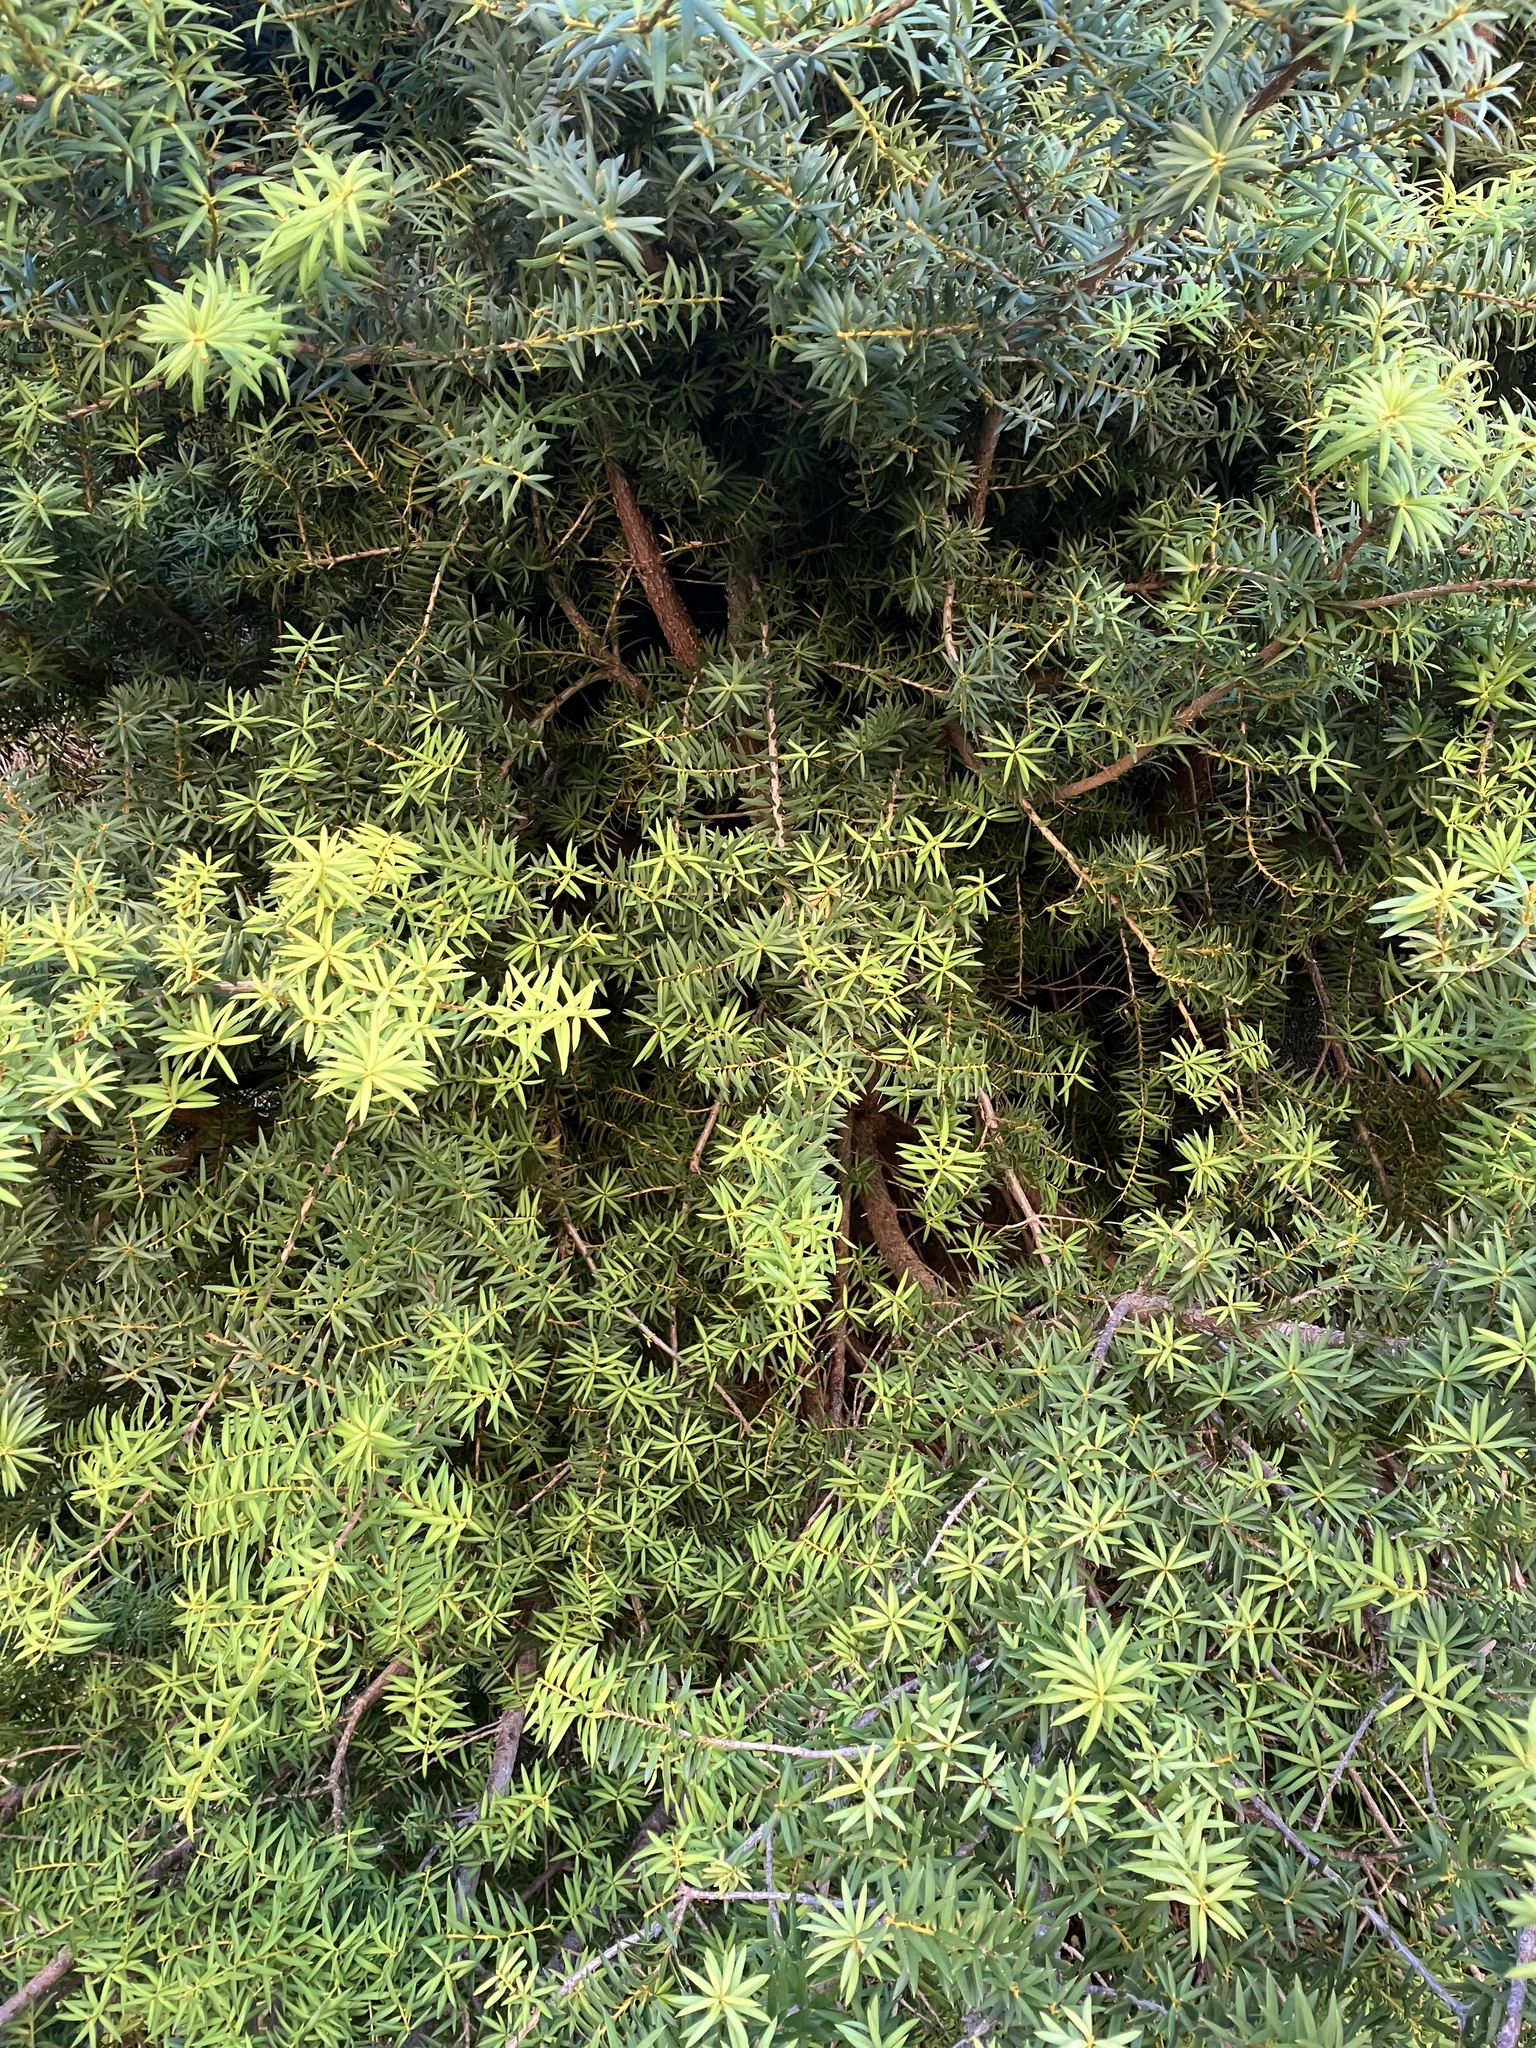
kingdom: Plantae
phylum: Tracheophyta
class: Pinopsida
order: Pinales
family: Podocarpaceae
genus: Podocarpus
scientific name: Podocarpus totara
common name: Totara
